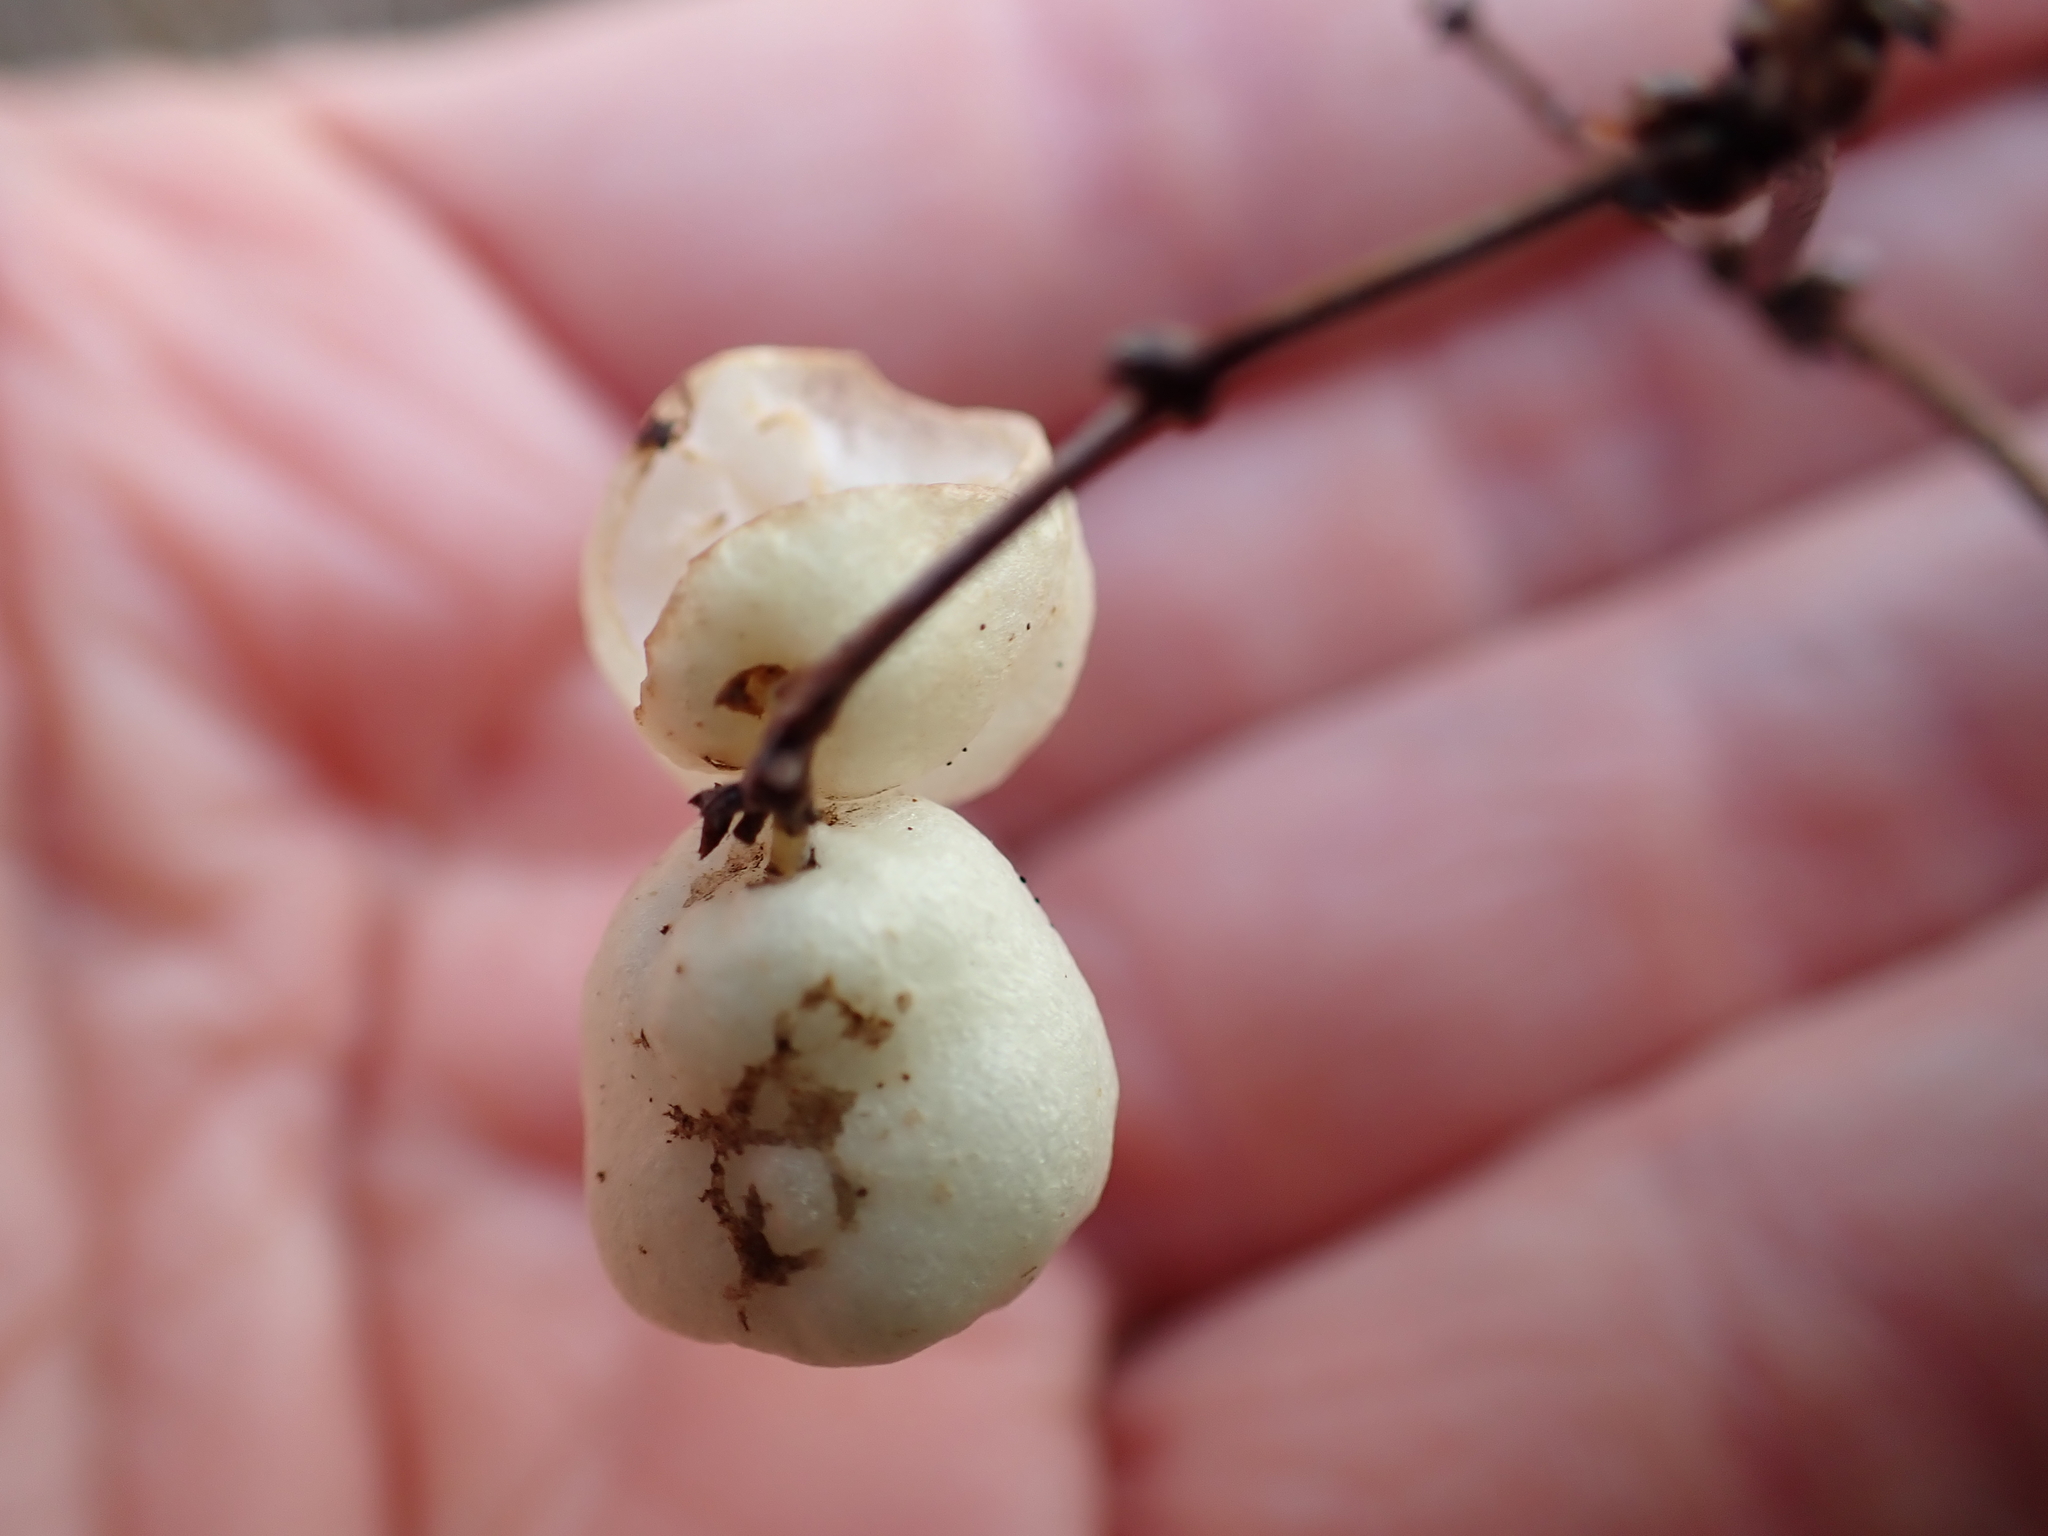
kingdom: Plantae
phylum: Tracheophyta
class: Magnoliopsida
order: Dipsacales
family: Caprifoliaceae
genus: Symphoricarpos
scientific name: Symphoricarpos albus
